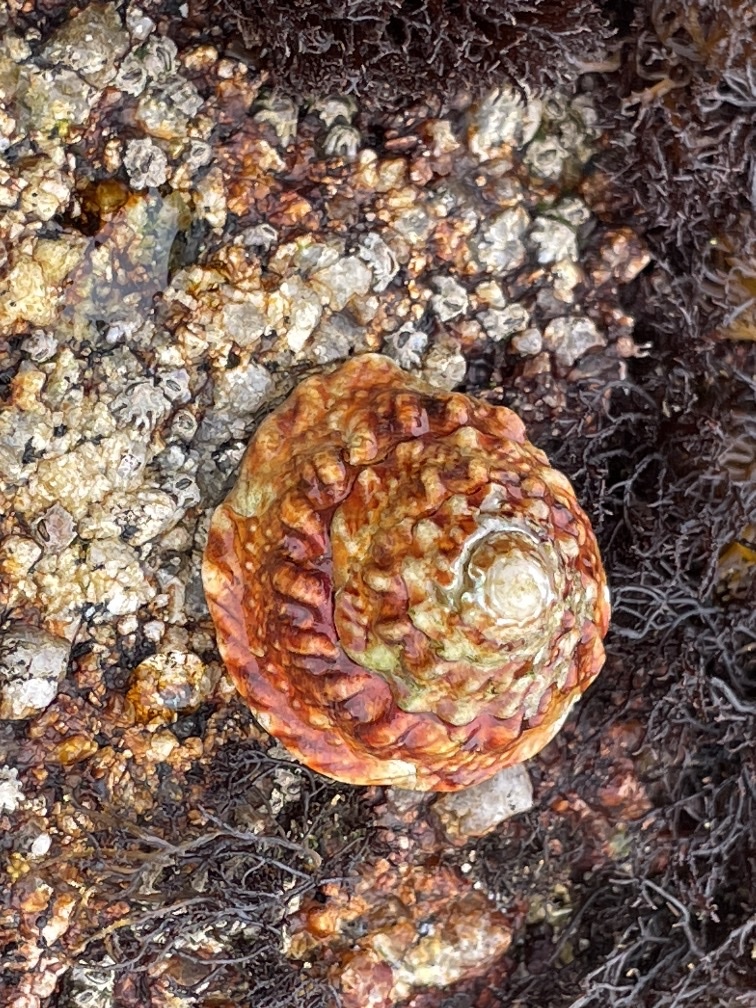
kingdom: Animalia
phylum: Mollusca
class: Gastropoda
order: Trochida
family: Turbinidae
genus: Pomaulax
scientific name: Pomaulax gibberosus
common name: Red turban
